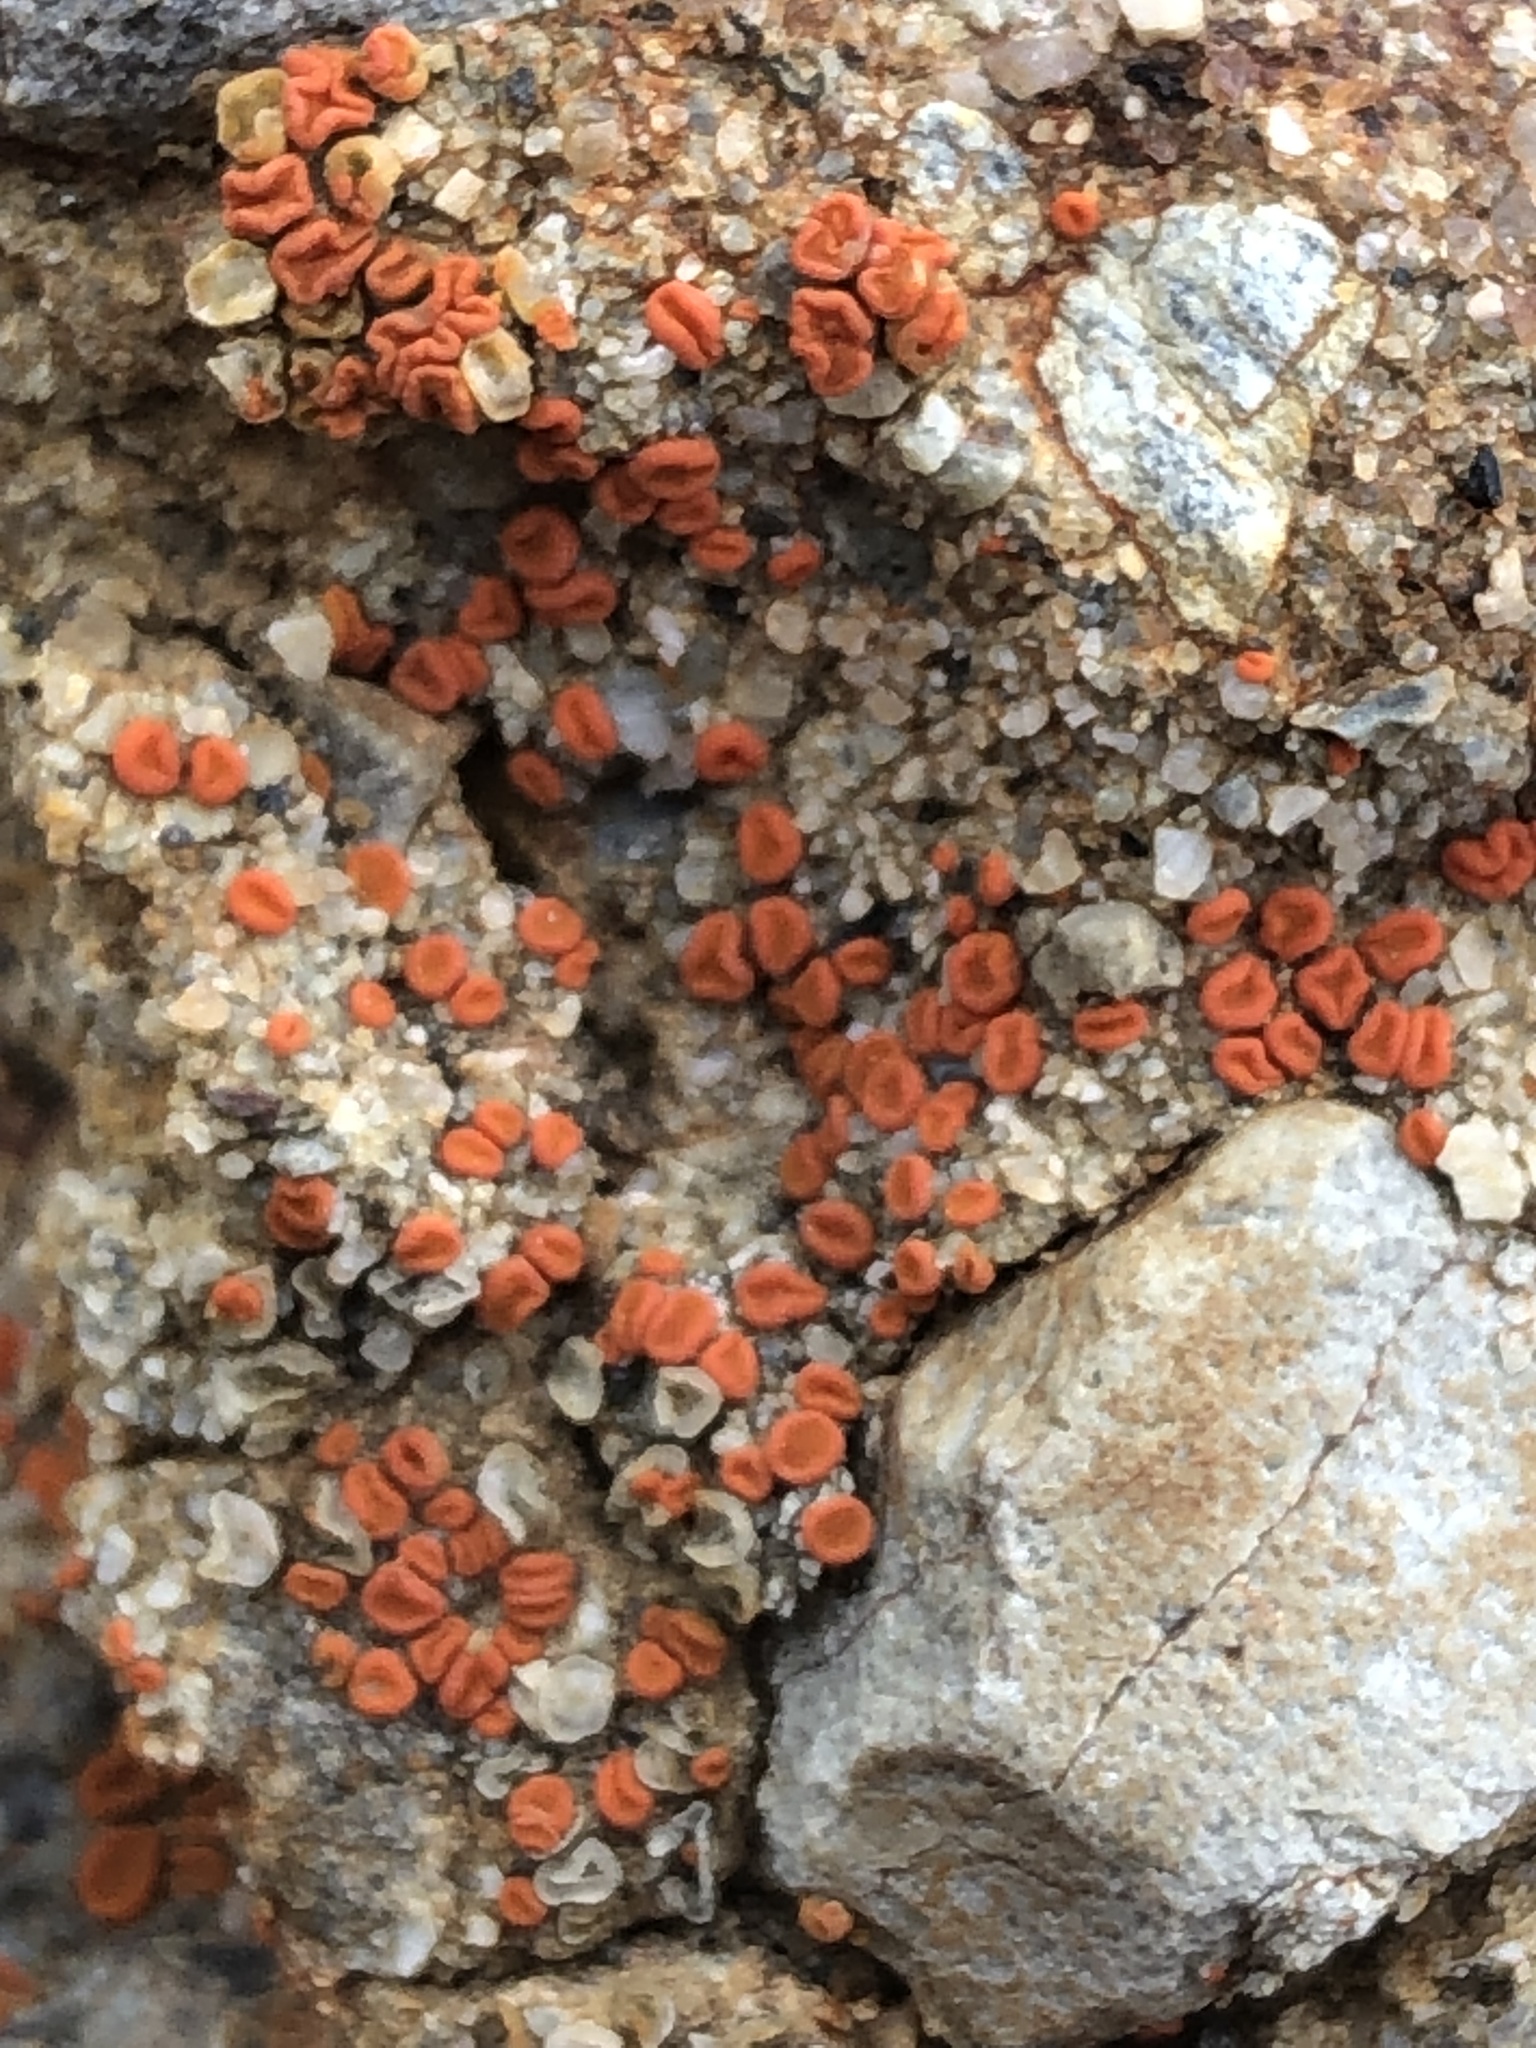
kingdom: Fungi
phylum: Ascomycota
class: Lecanoromycetes
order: Teloschistales
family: Teloschistaceae
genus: Tomnashia
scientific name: Tomnashia luteominia
